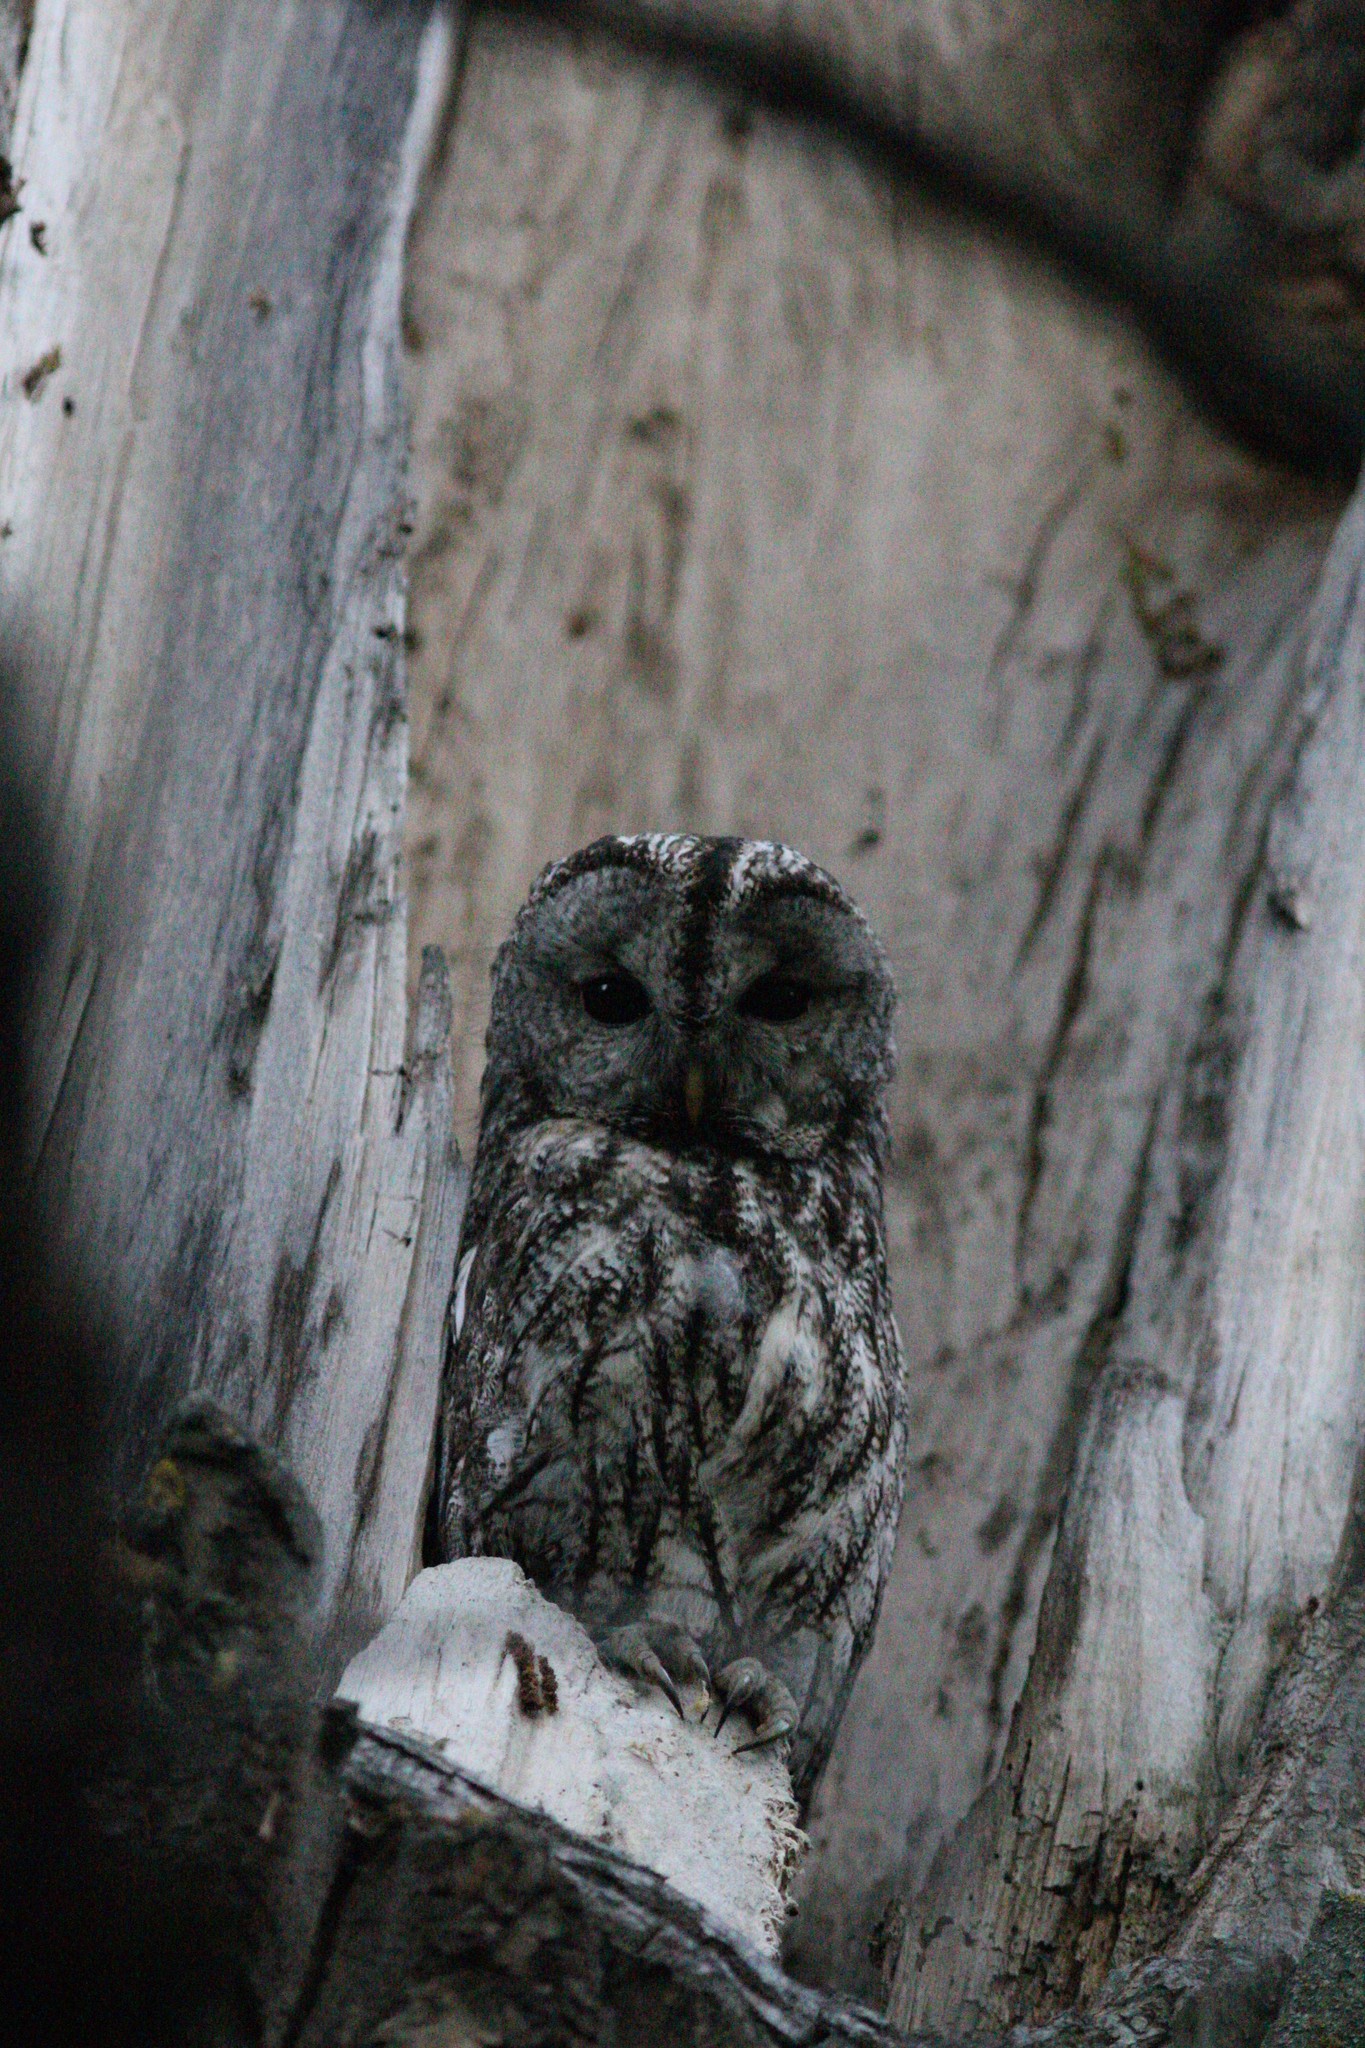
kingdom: Animalia
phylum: Chordata
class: Aves
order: Strigiformes
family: Strigidae
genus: Strix
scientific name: Strix aluco
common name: Tawny owl
